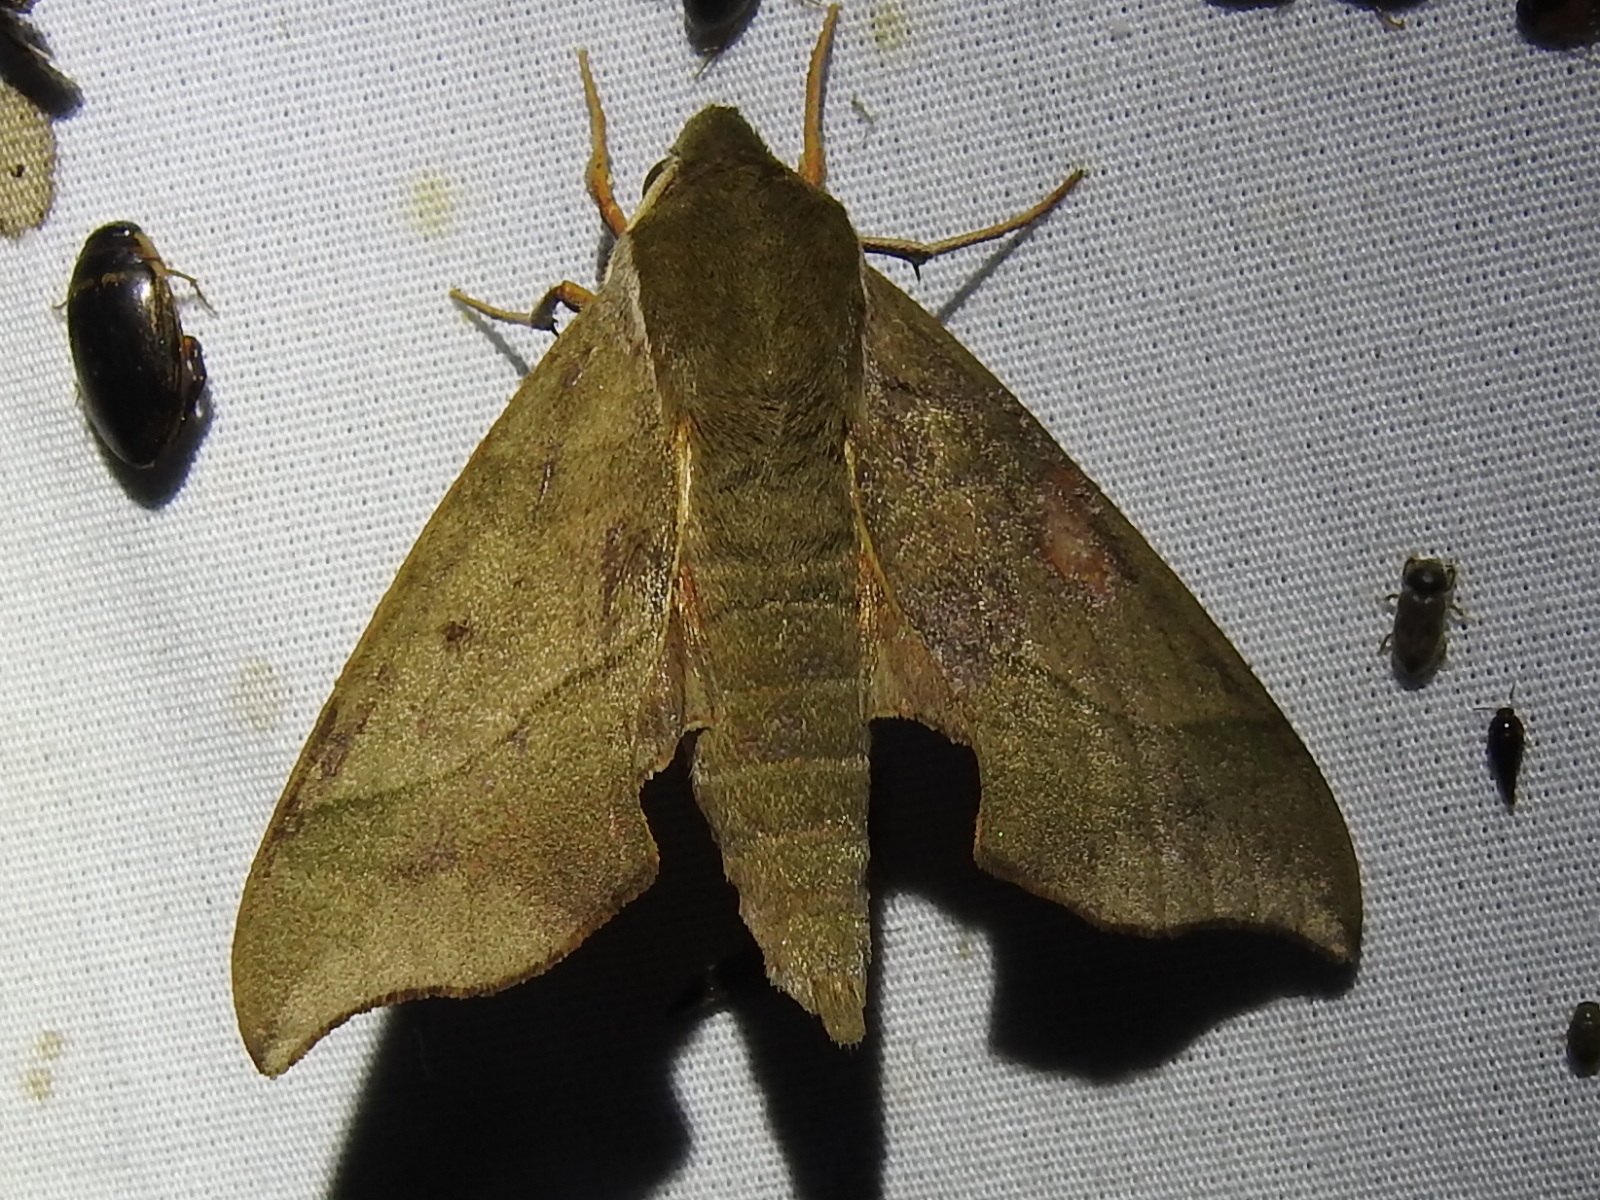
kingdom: Animalia
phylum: Arthropoda
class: Insecta
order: Lepidoptera
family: Sphingidae
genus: Darapsa
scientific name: Darapsa myron
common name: Hog sphinx
